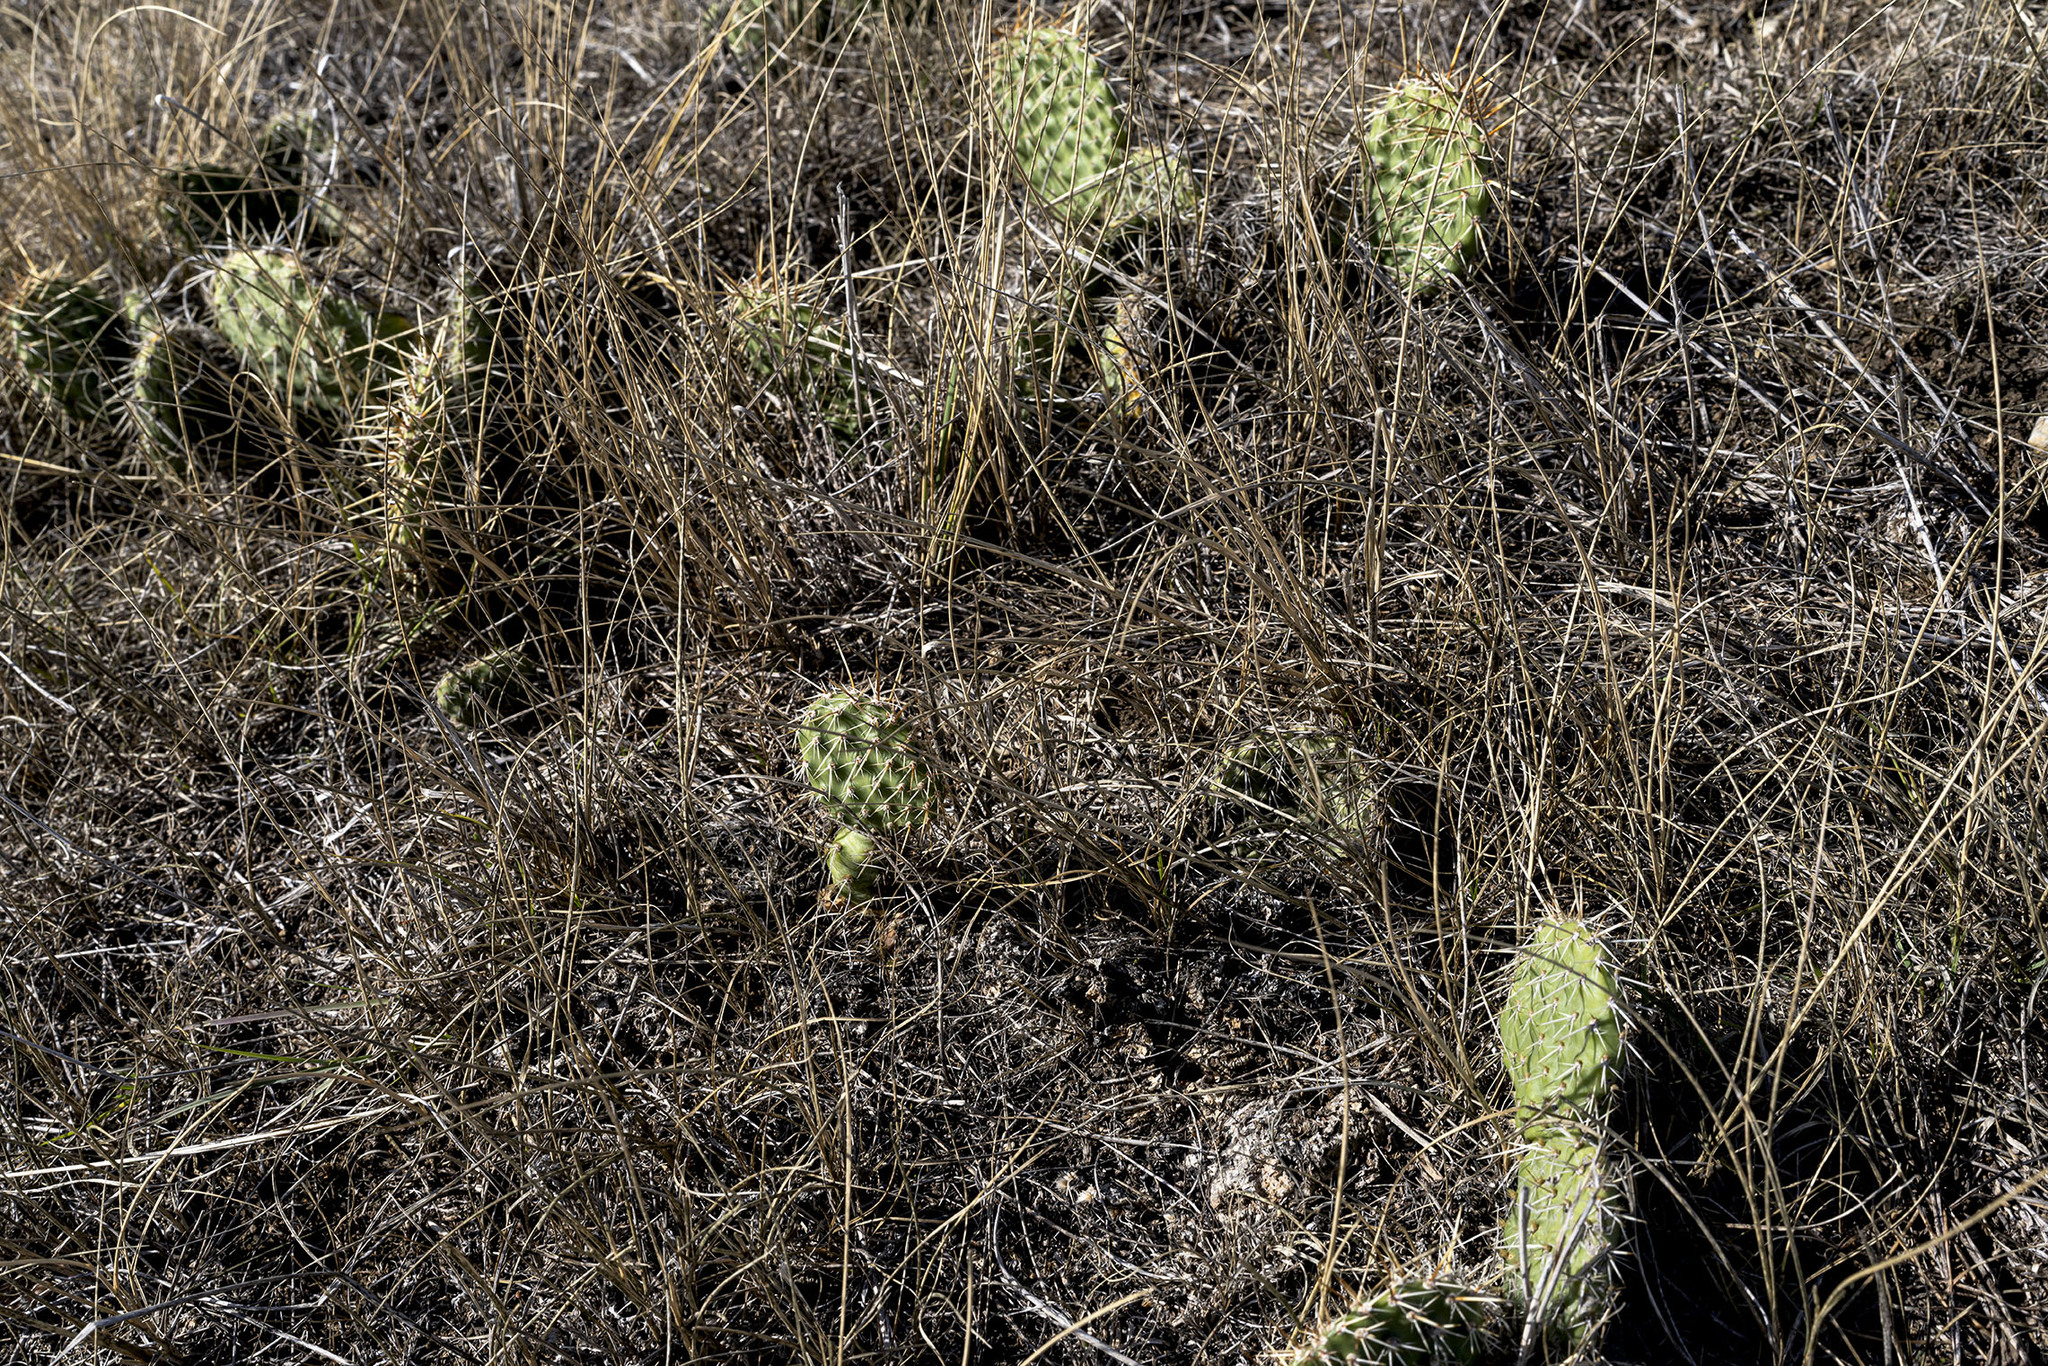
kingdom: Plantae
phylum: Tracheophyta
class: Magnoliopsida
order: Caryophyllales
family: Cactaceae
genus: Opuntia
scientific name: Opuntia polyacantha
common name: Plains prickly-pear
